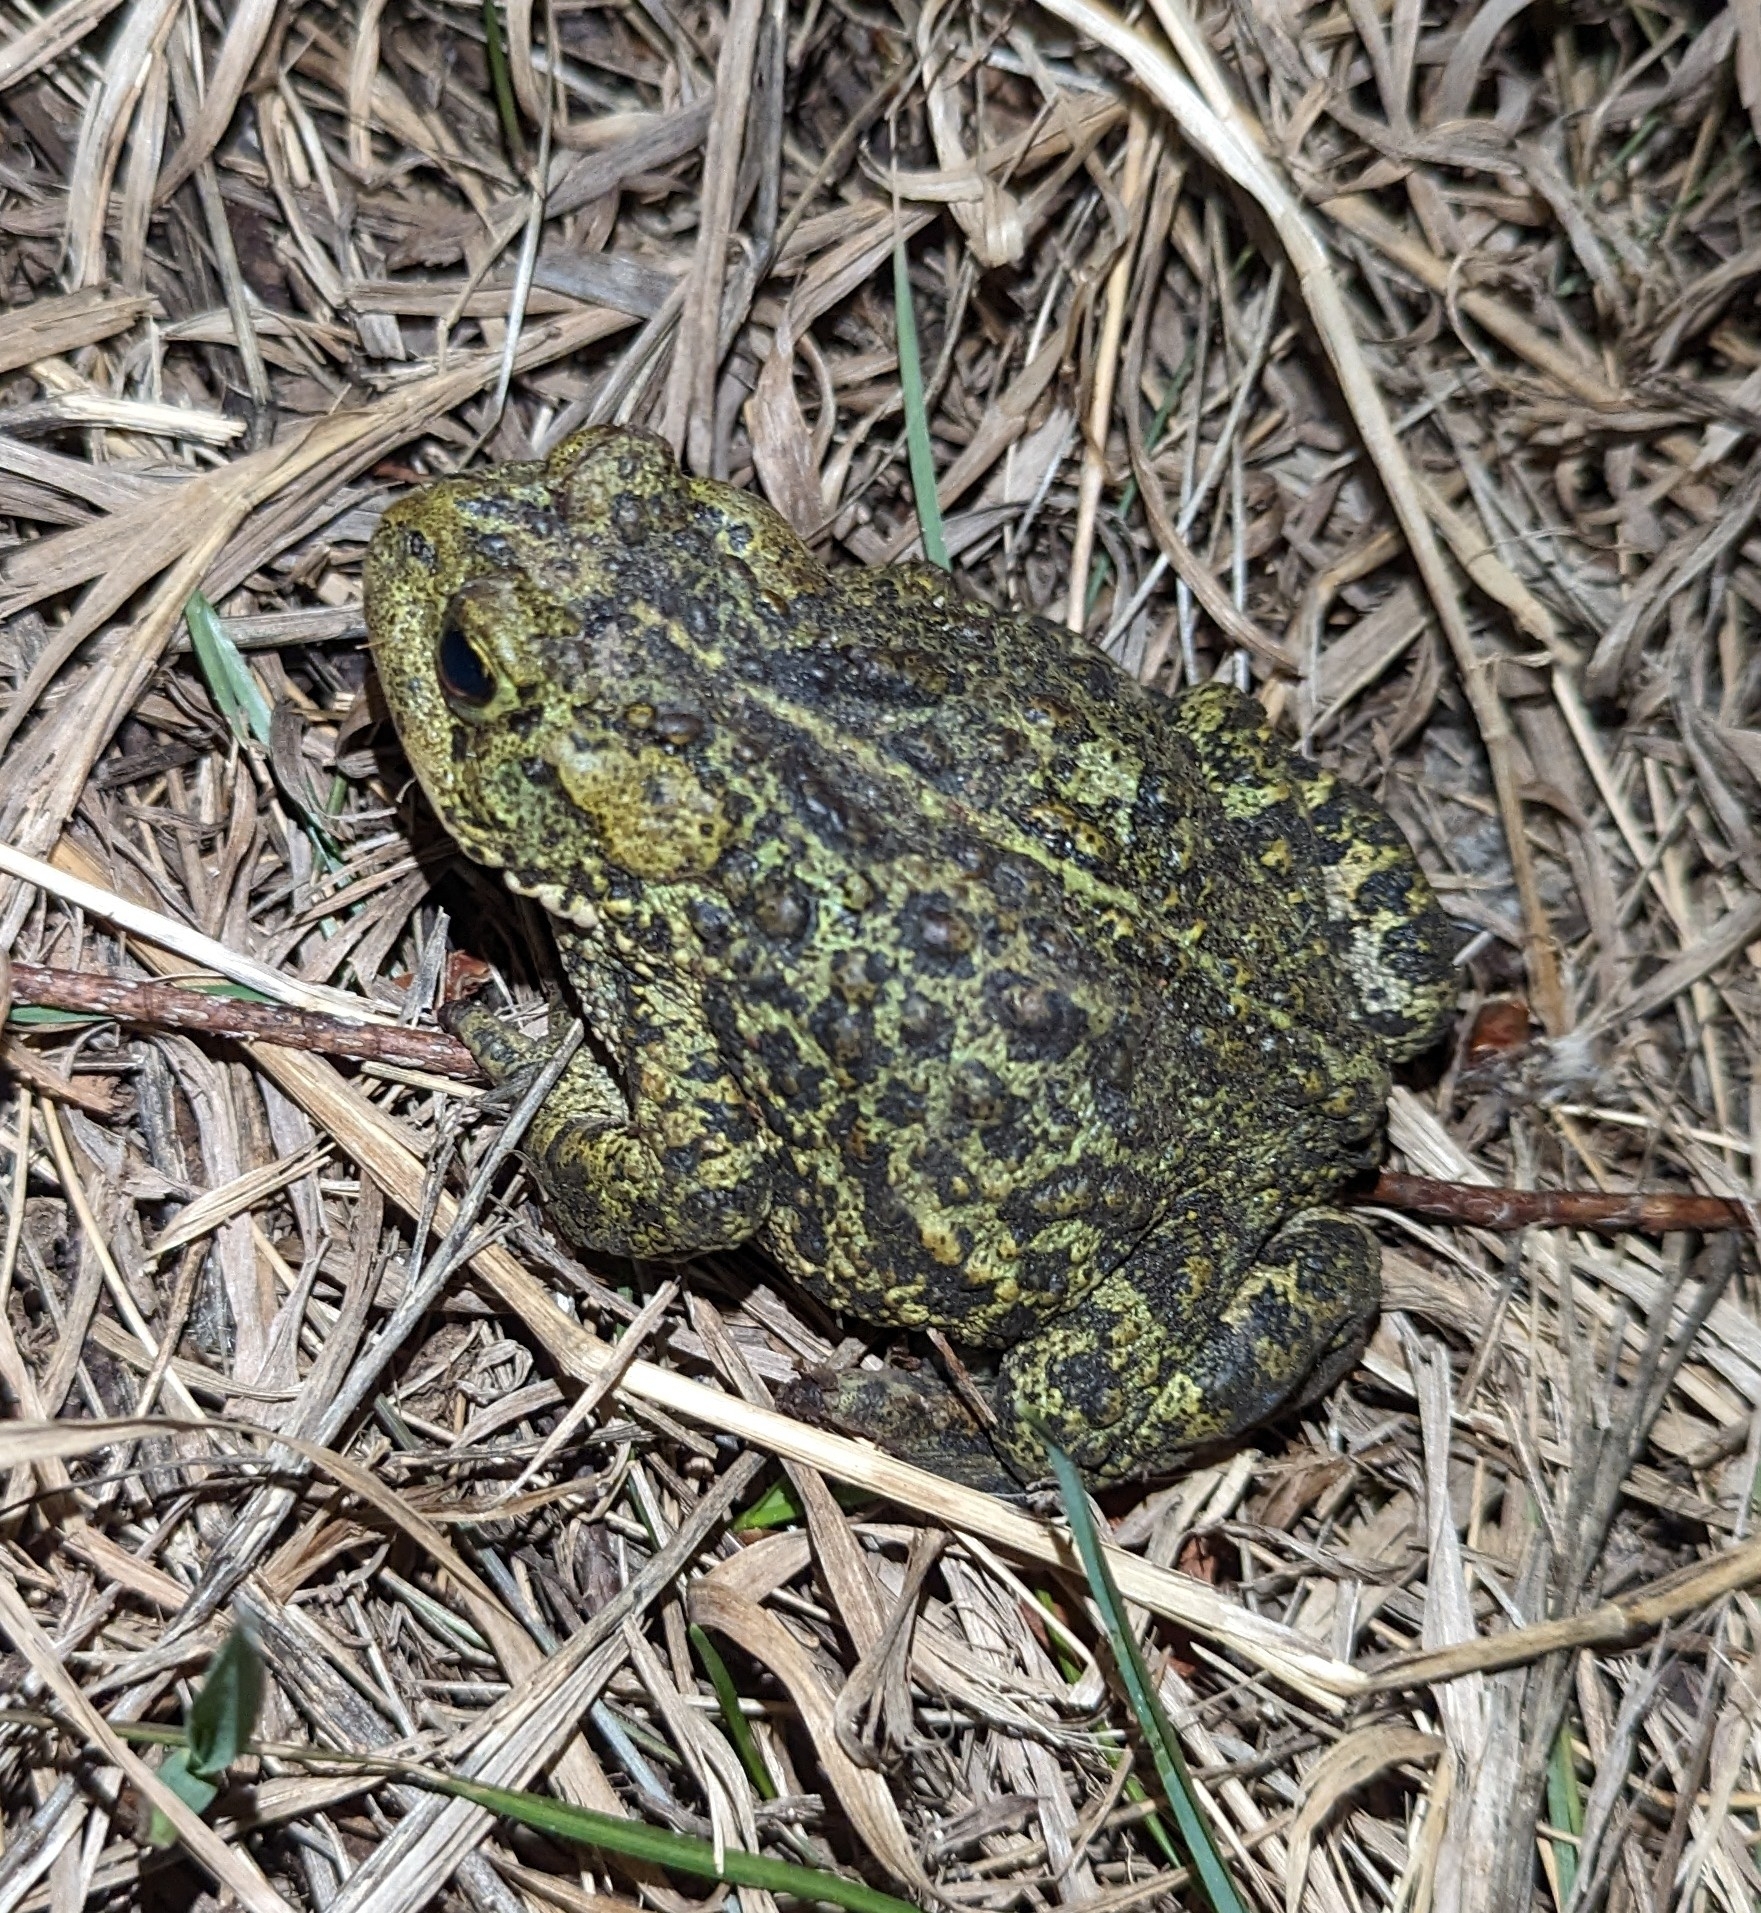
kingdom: Animalia
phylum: Chordata
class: Amphibia
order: Anura
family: Bufonidae
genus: Anaxyrus
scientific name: Anaxyrus boreas
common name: Western toad
